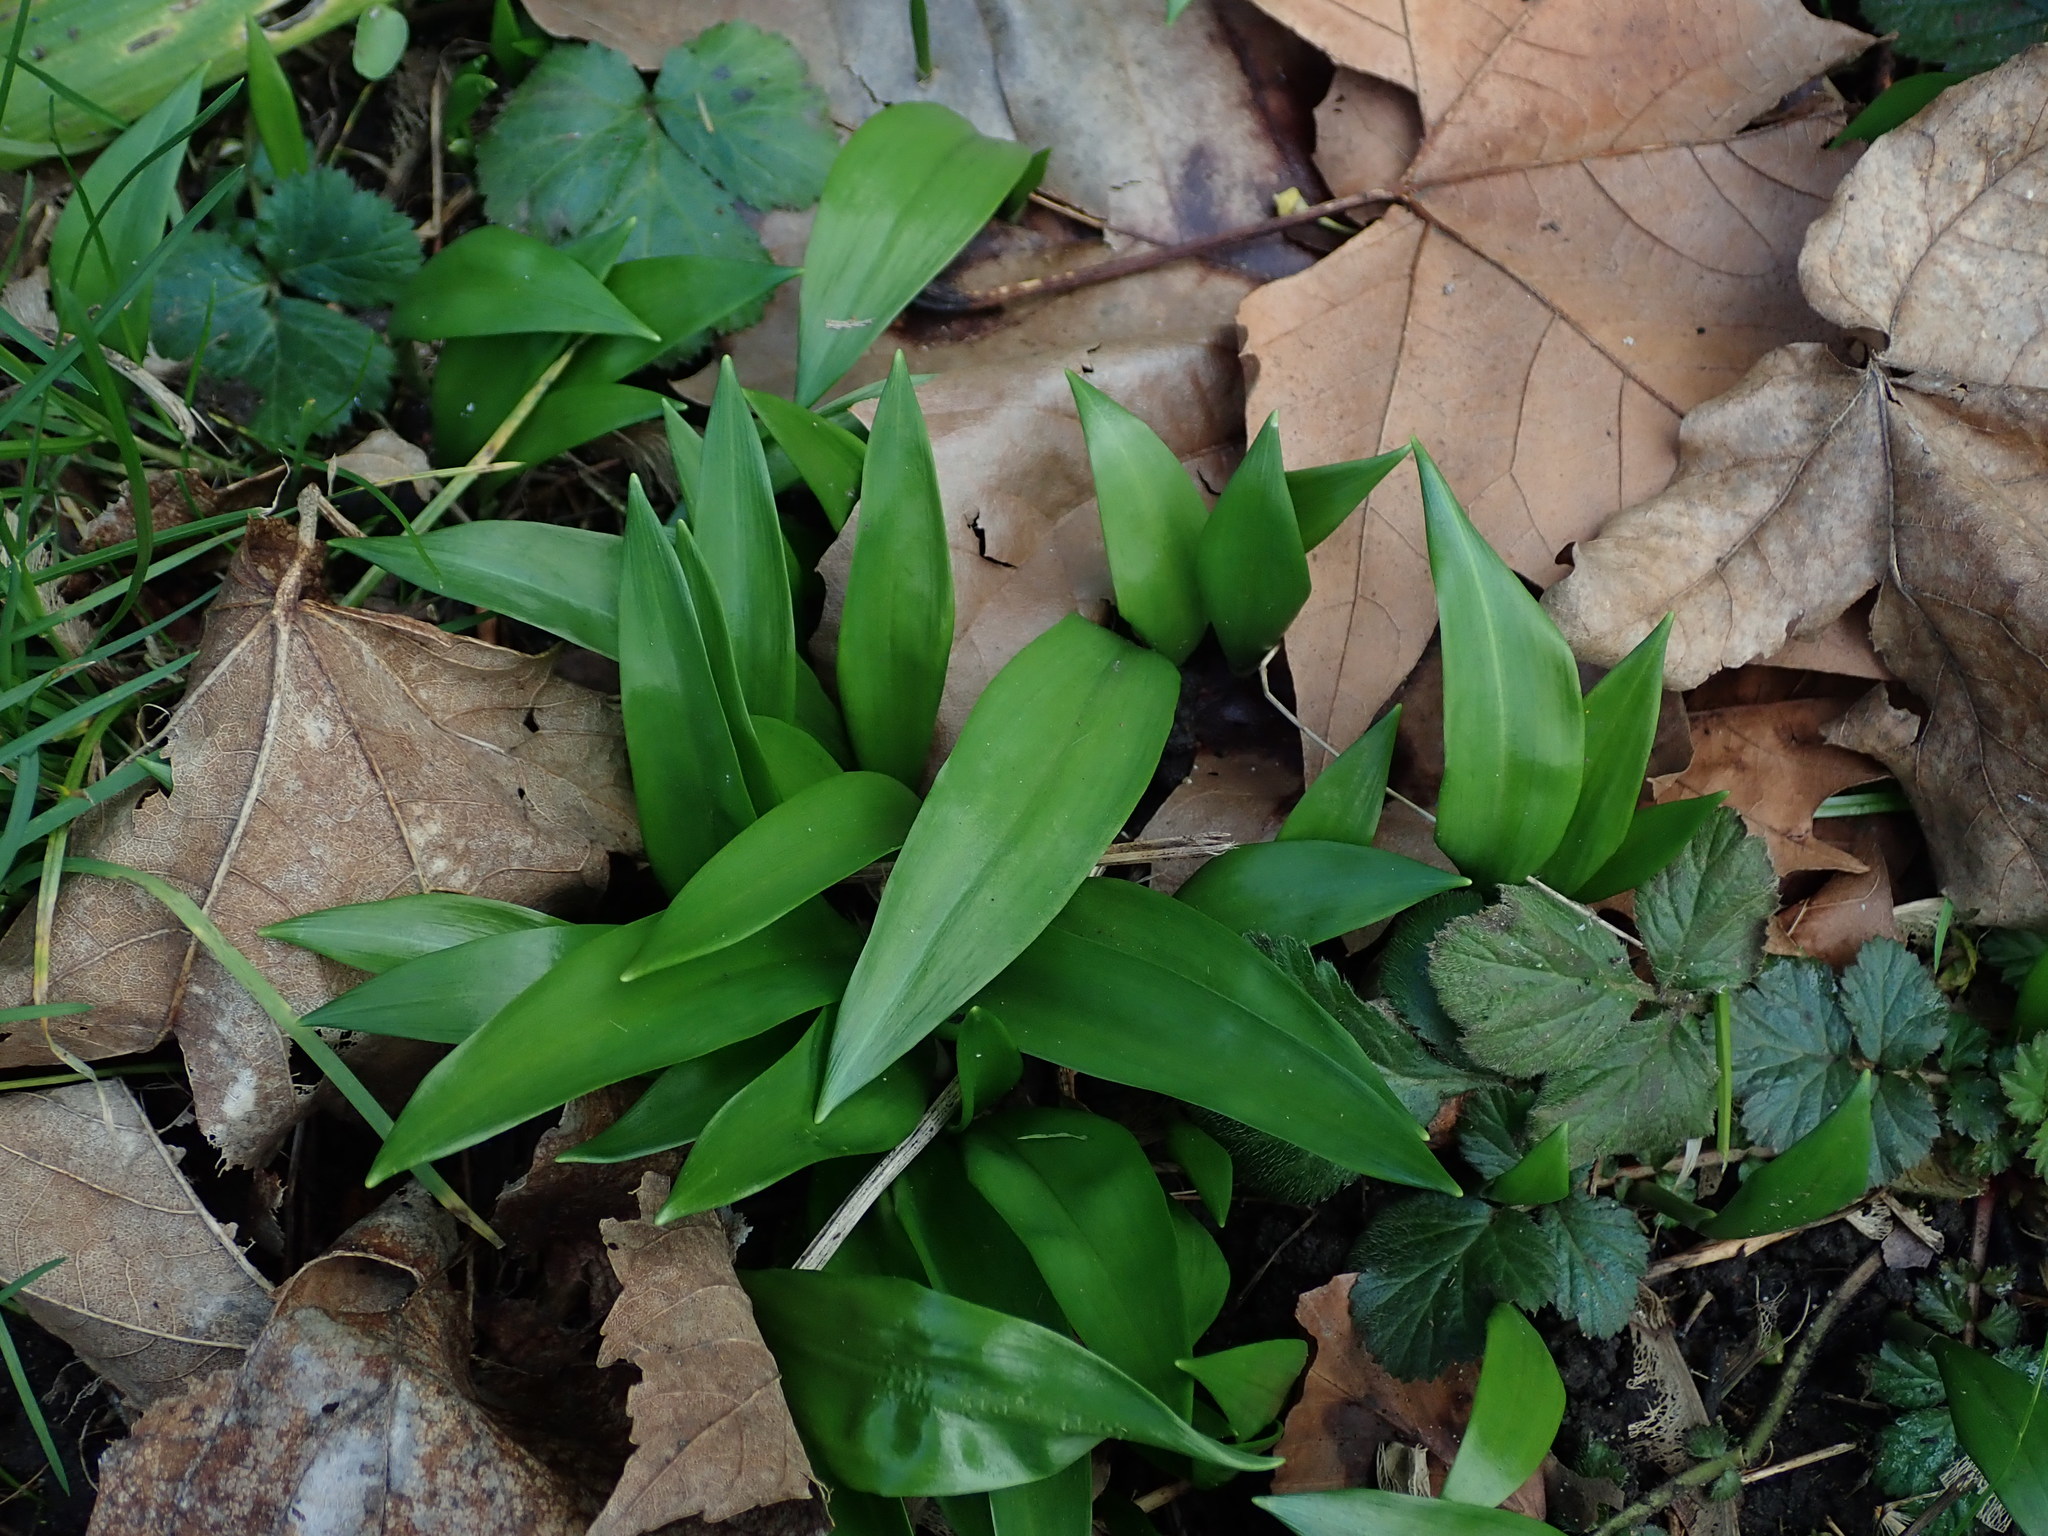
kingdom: Plantae
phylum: Tracheophyta
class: Liliopsida
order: Asparagales
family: Amaryllidaceae
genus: Allium
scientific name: Allium ursinum
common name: Ramsons
